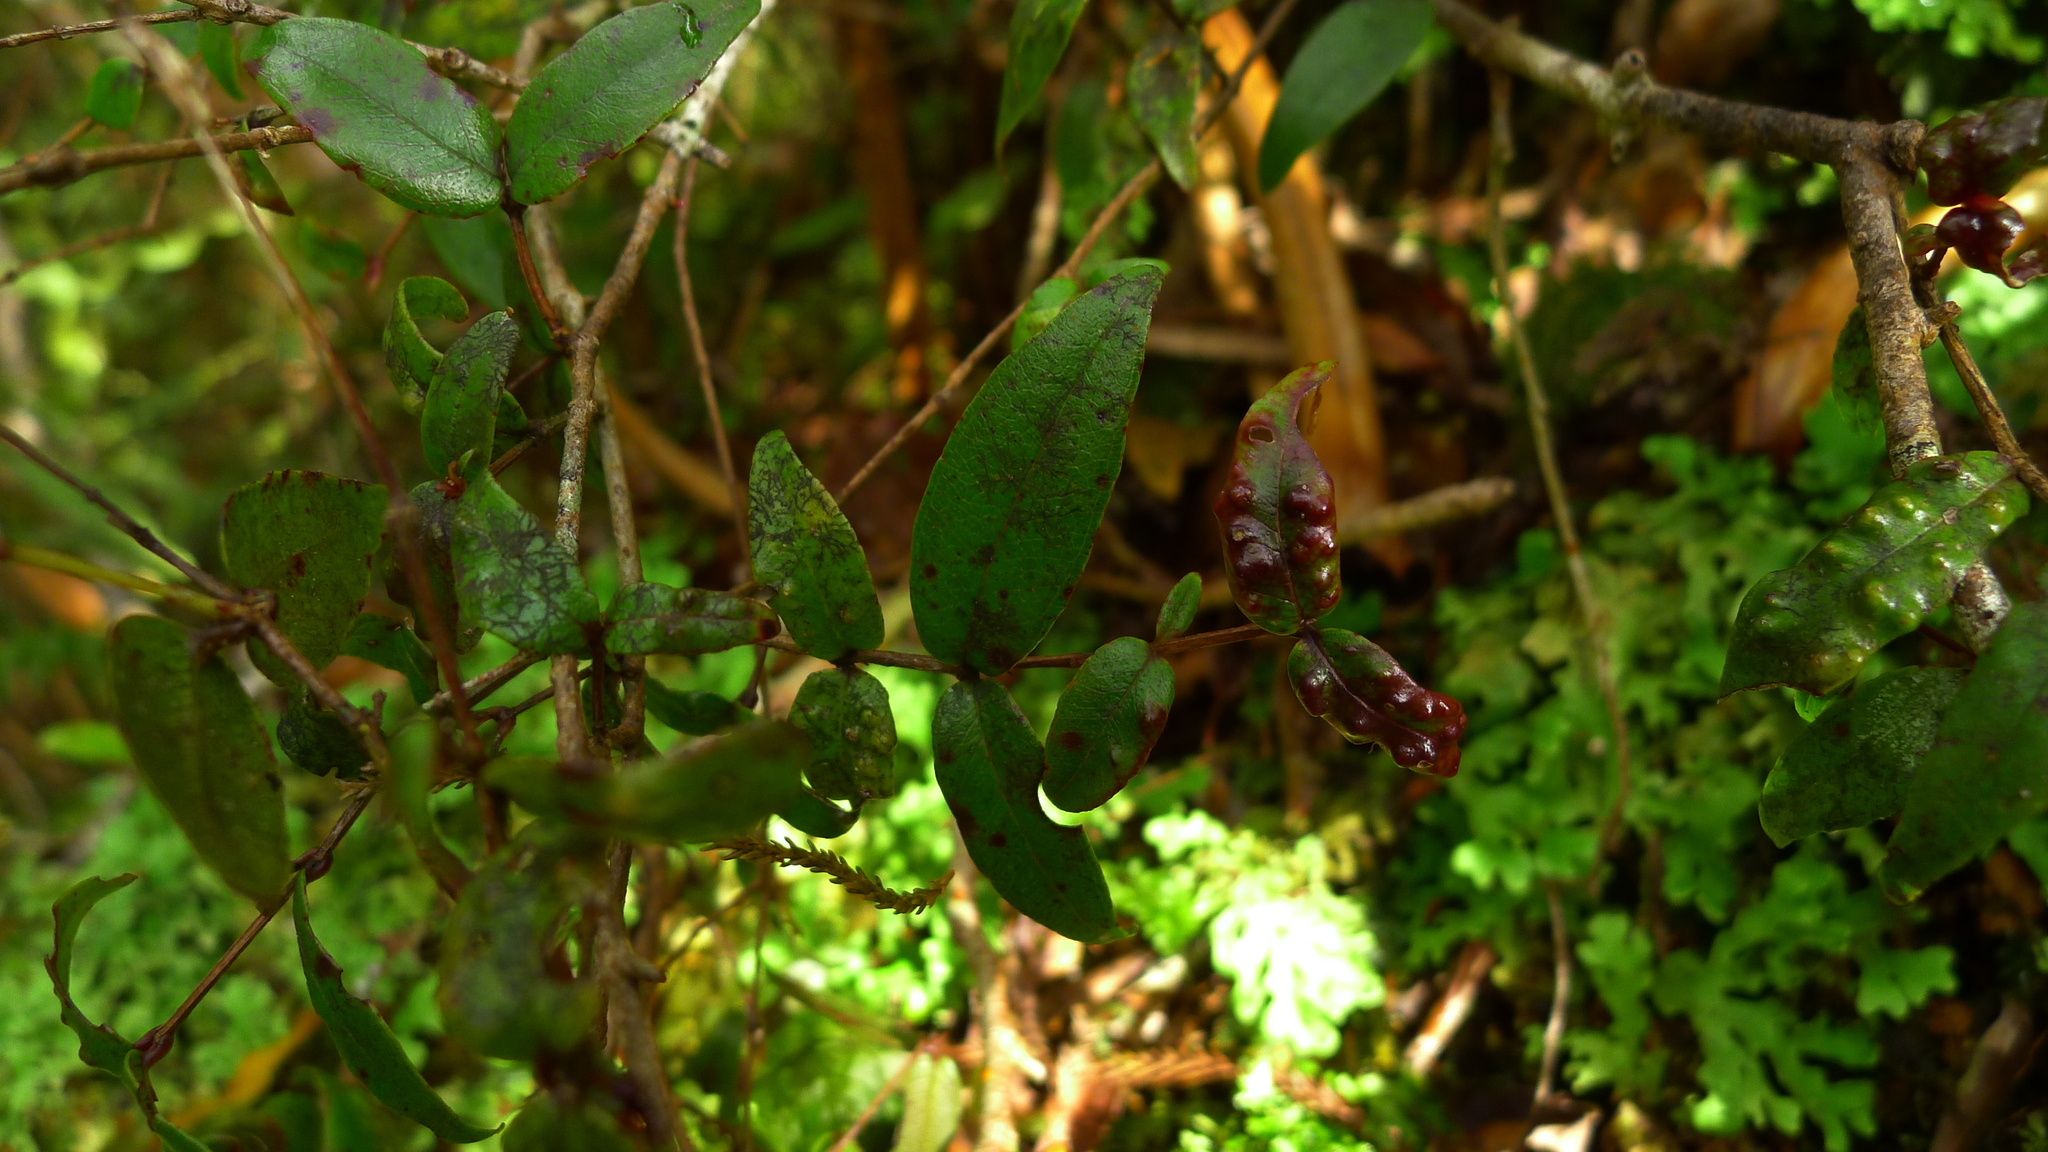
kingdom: Plantae
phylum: Tracheophyta
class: Magnoliopsida
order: Myrtales
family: Myrtaceae
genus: Metrosideros
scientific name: Metrosideros parkinsonii
